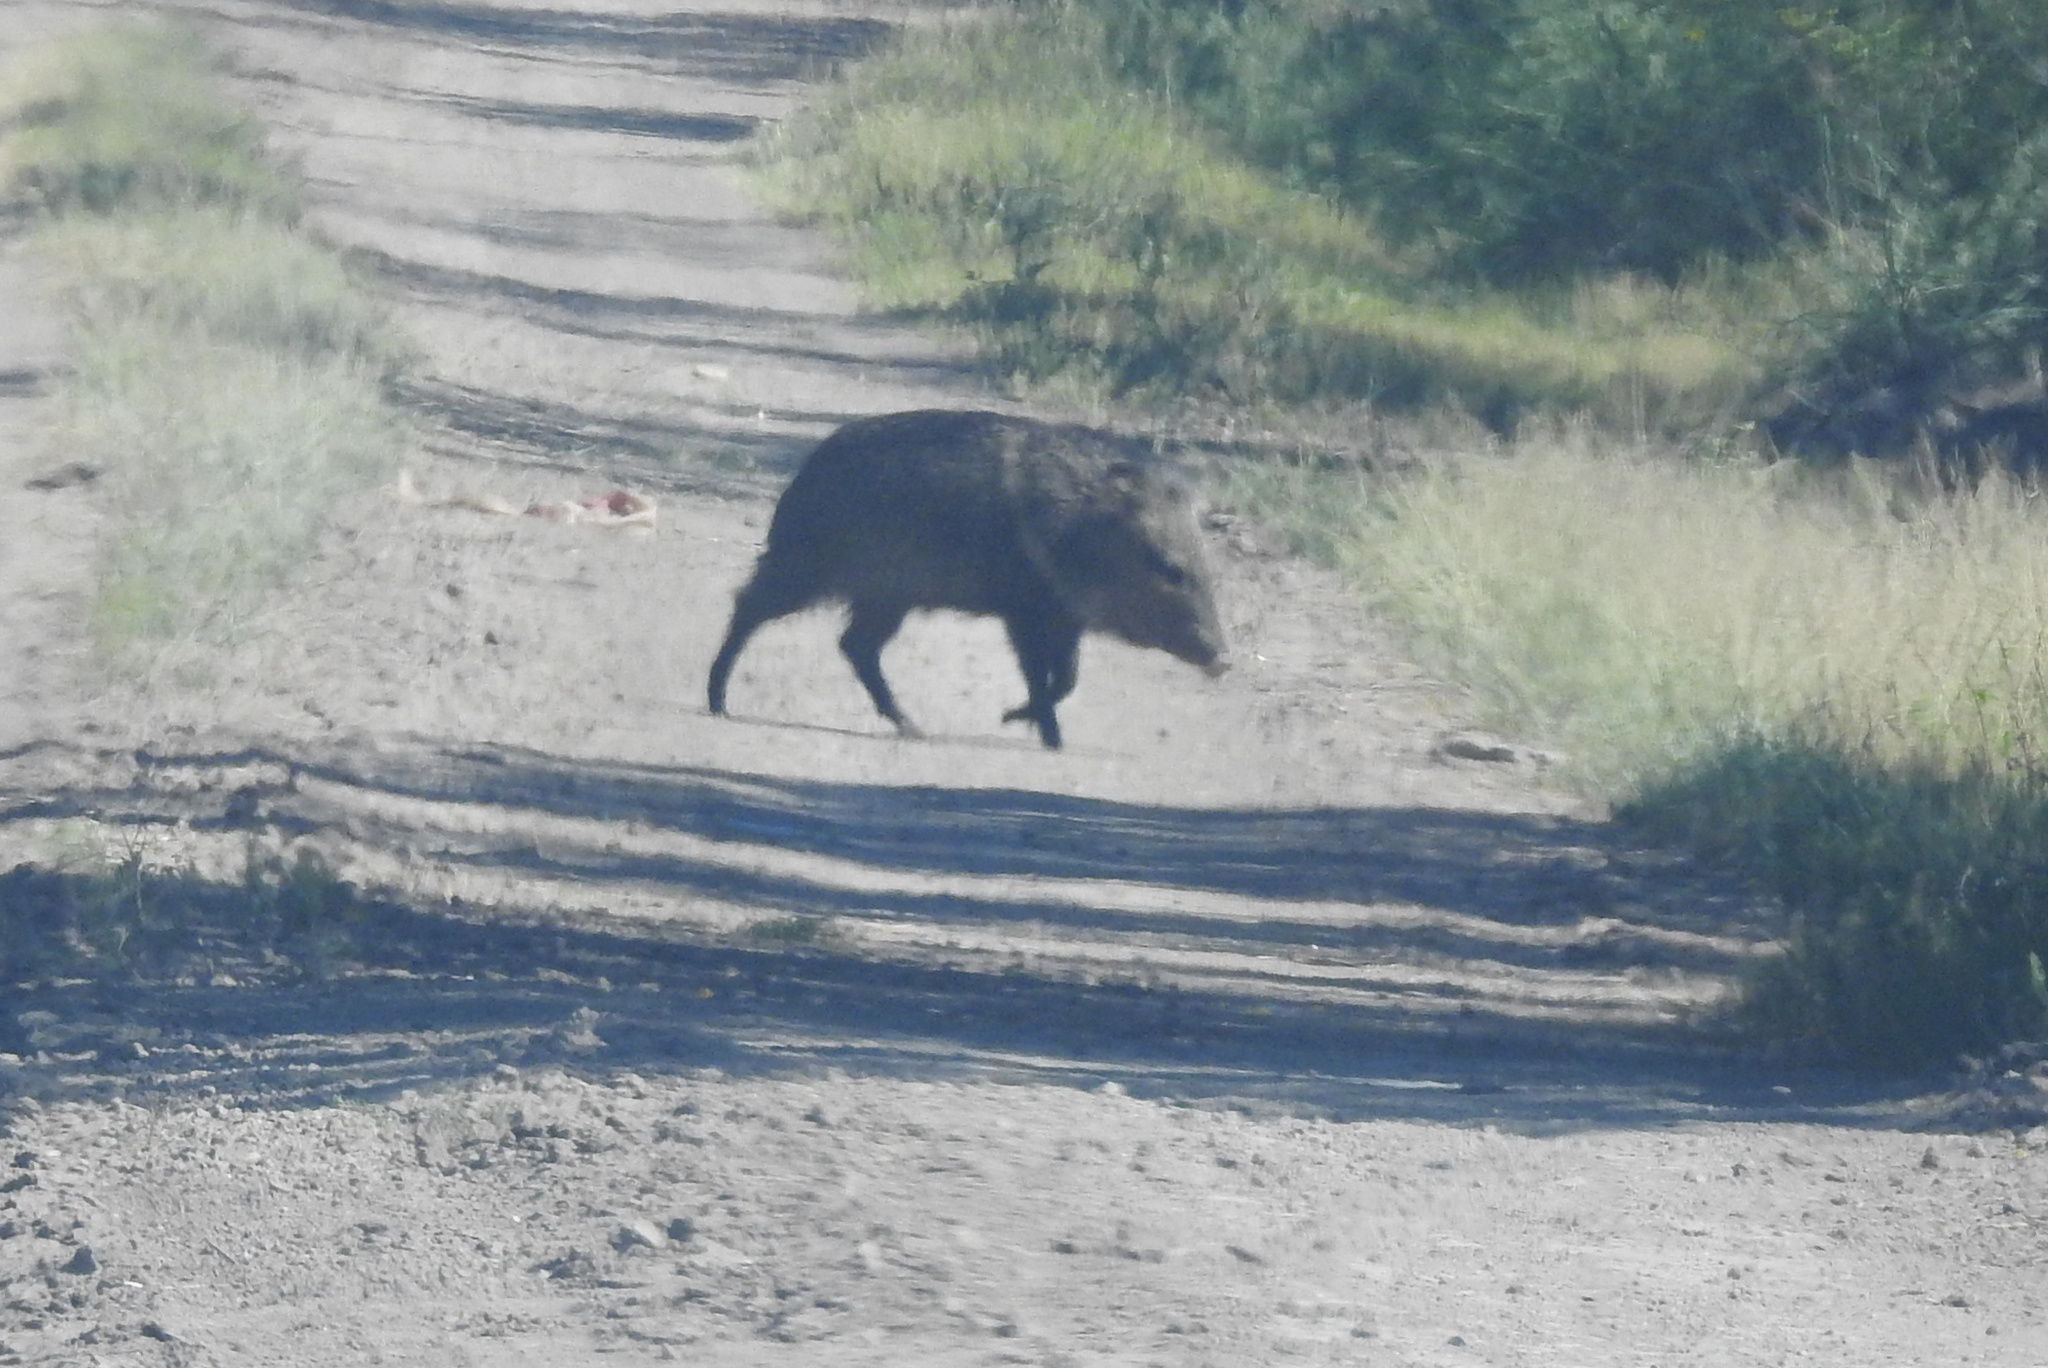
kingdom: Animalia
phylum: Chordata
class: Mammalia
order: Artiodactyla
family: Tayassuidae
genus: Pecari
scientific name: Pecari tajacu
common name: Collared peccary
